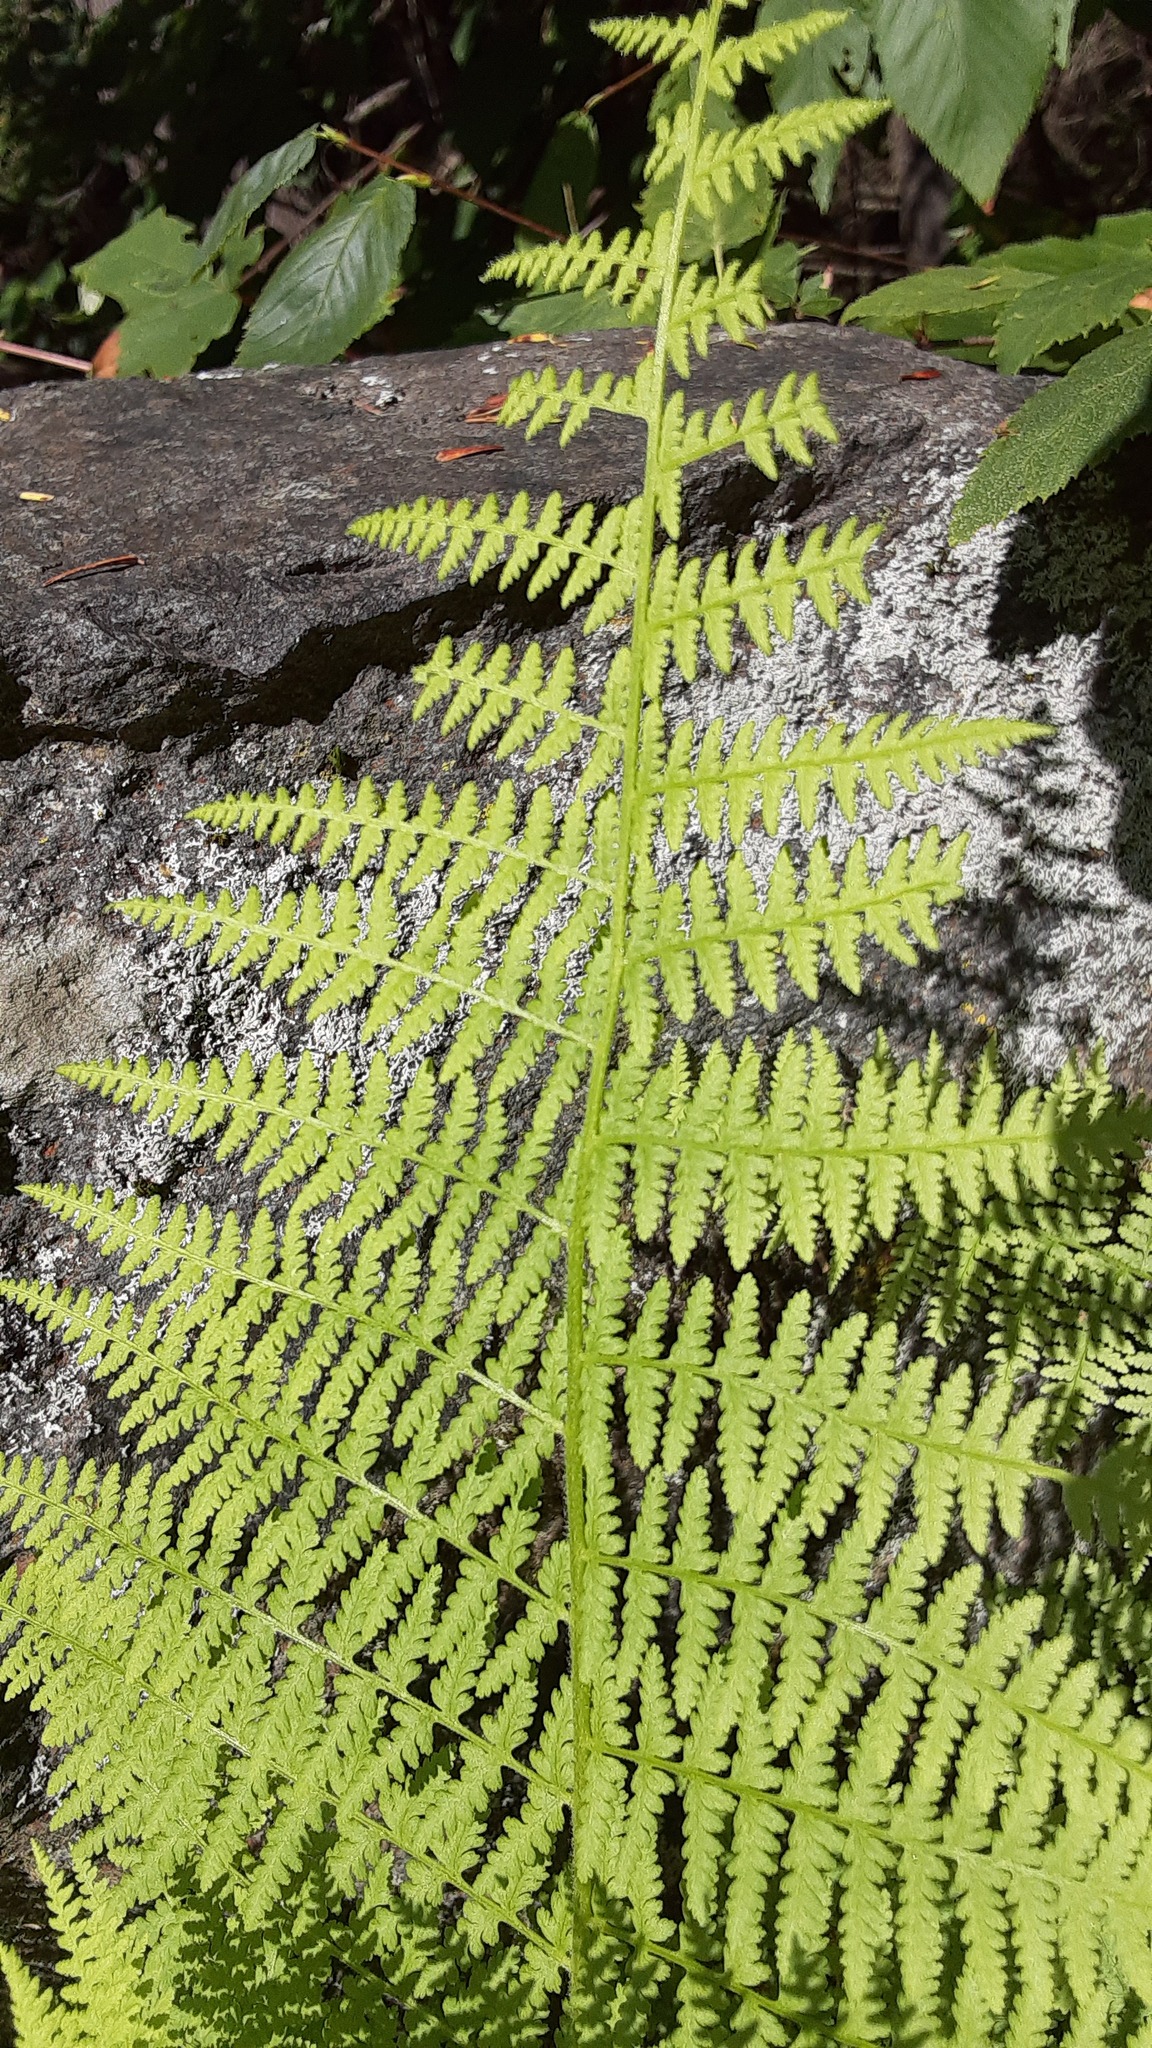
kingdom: Plantae
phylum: Tracheophyta
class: Polypodiopsida
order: Polypodiales
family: Dennstaedtiaceae
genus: Sitobolium
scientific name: Sitobolium punctilobum
